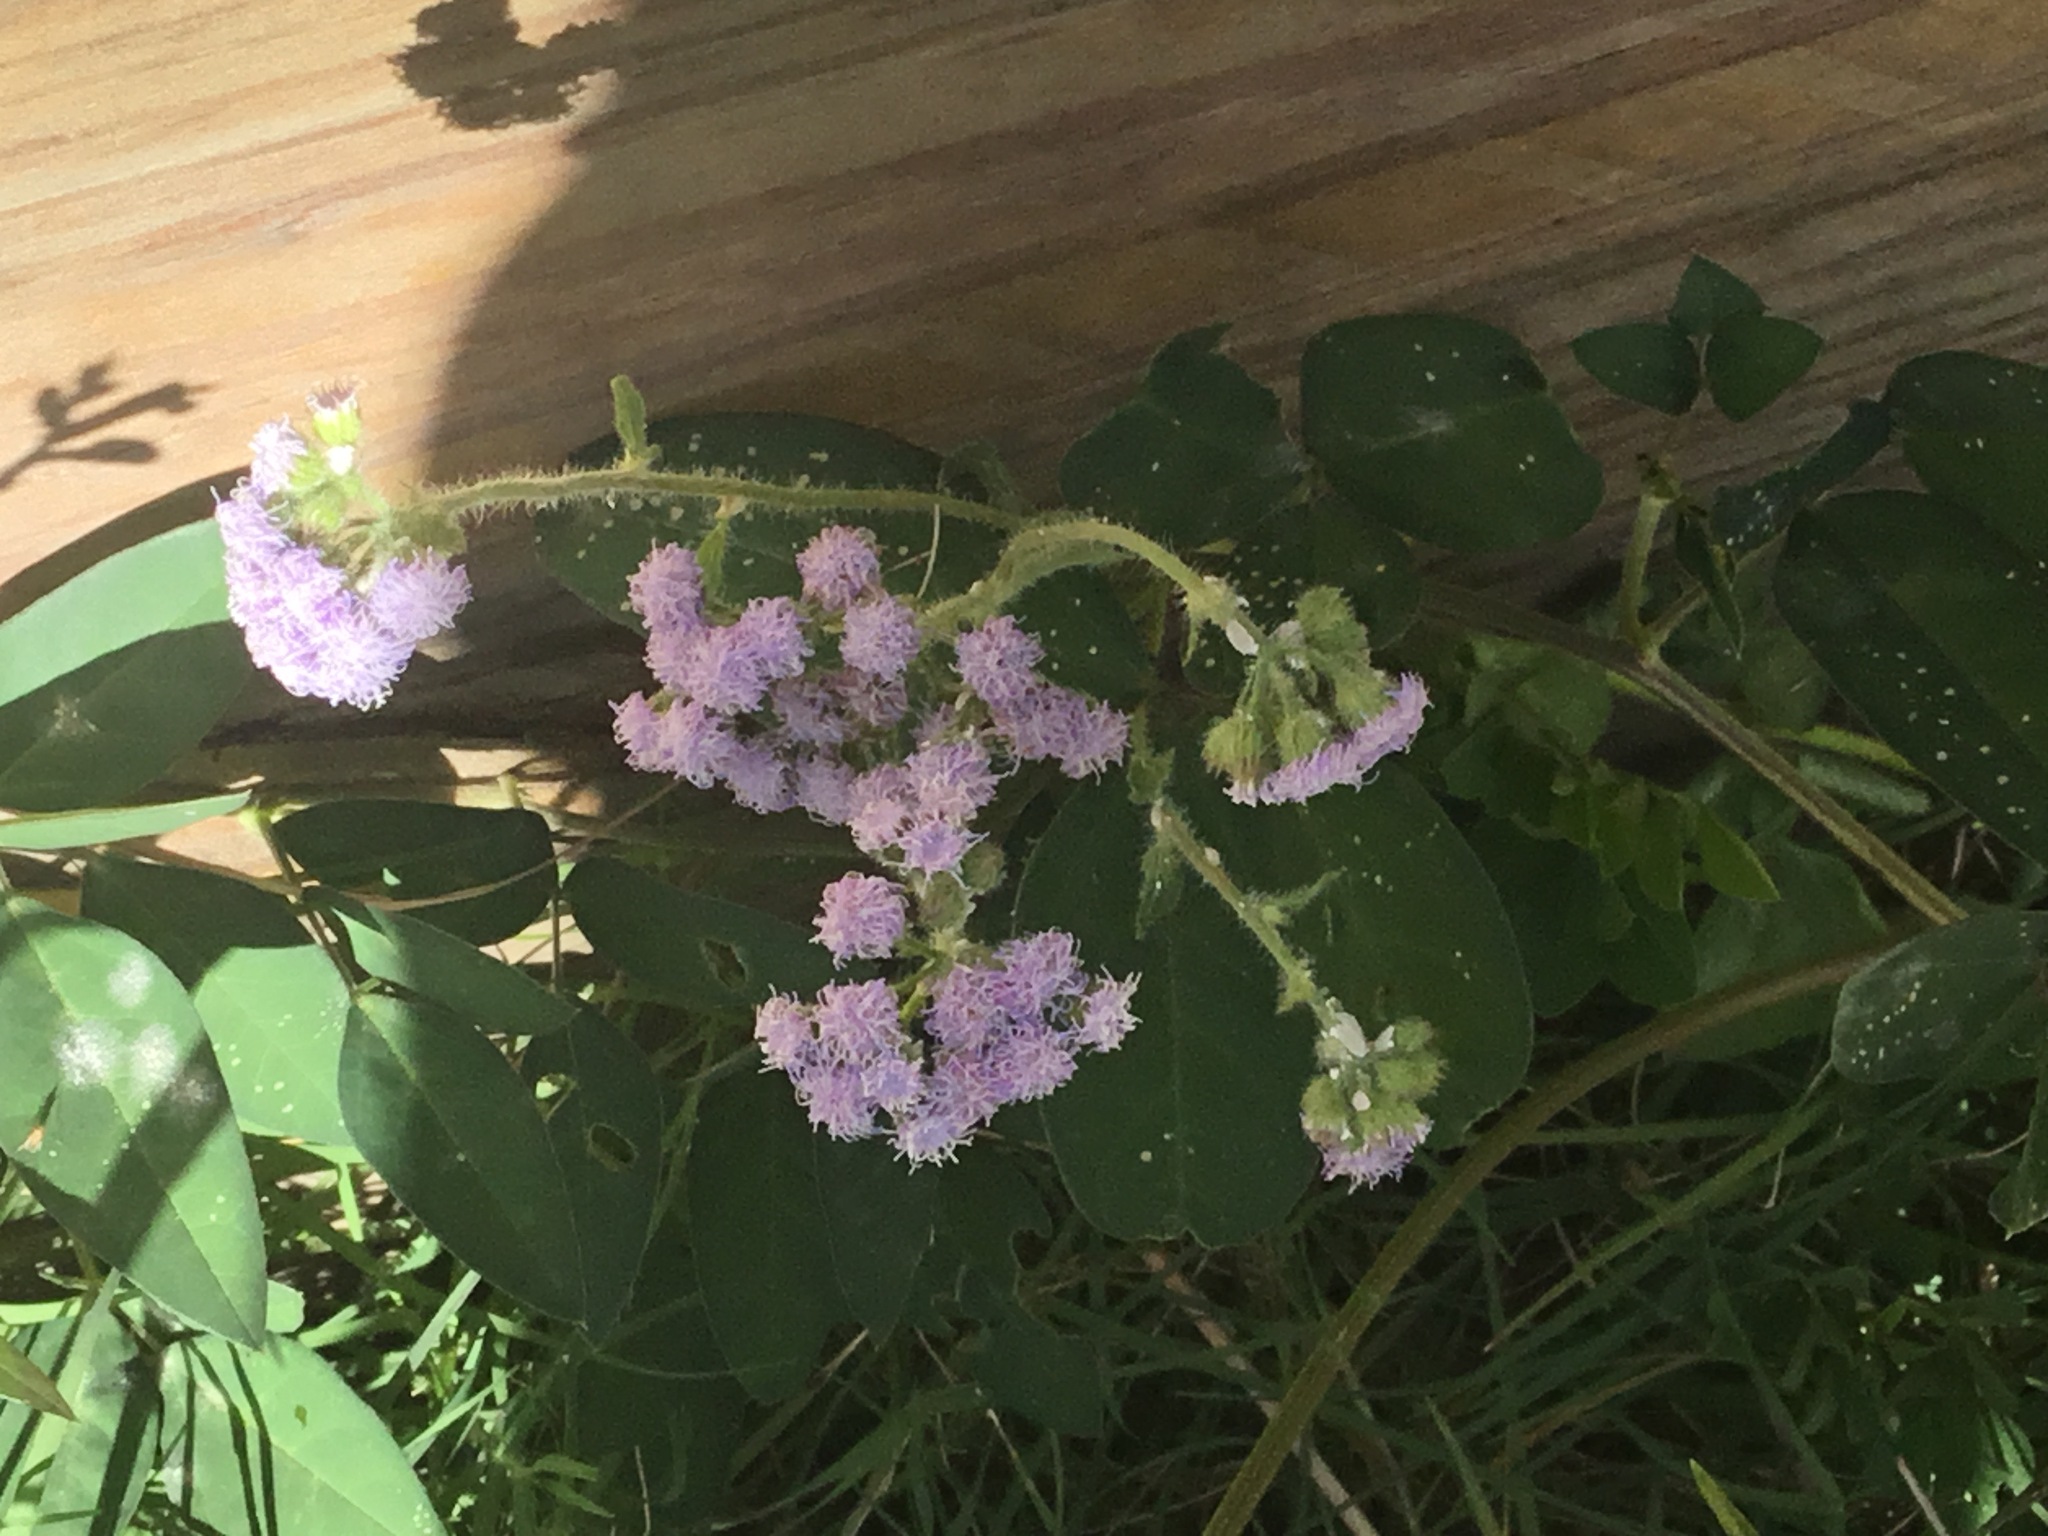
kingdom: Plantae
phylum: Tracheophyta
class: Magnoliopsida
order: Asterales
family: Asteraceae
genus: Ageratum
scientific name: Ageratum houstonianum
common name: Bluemink
